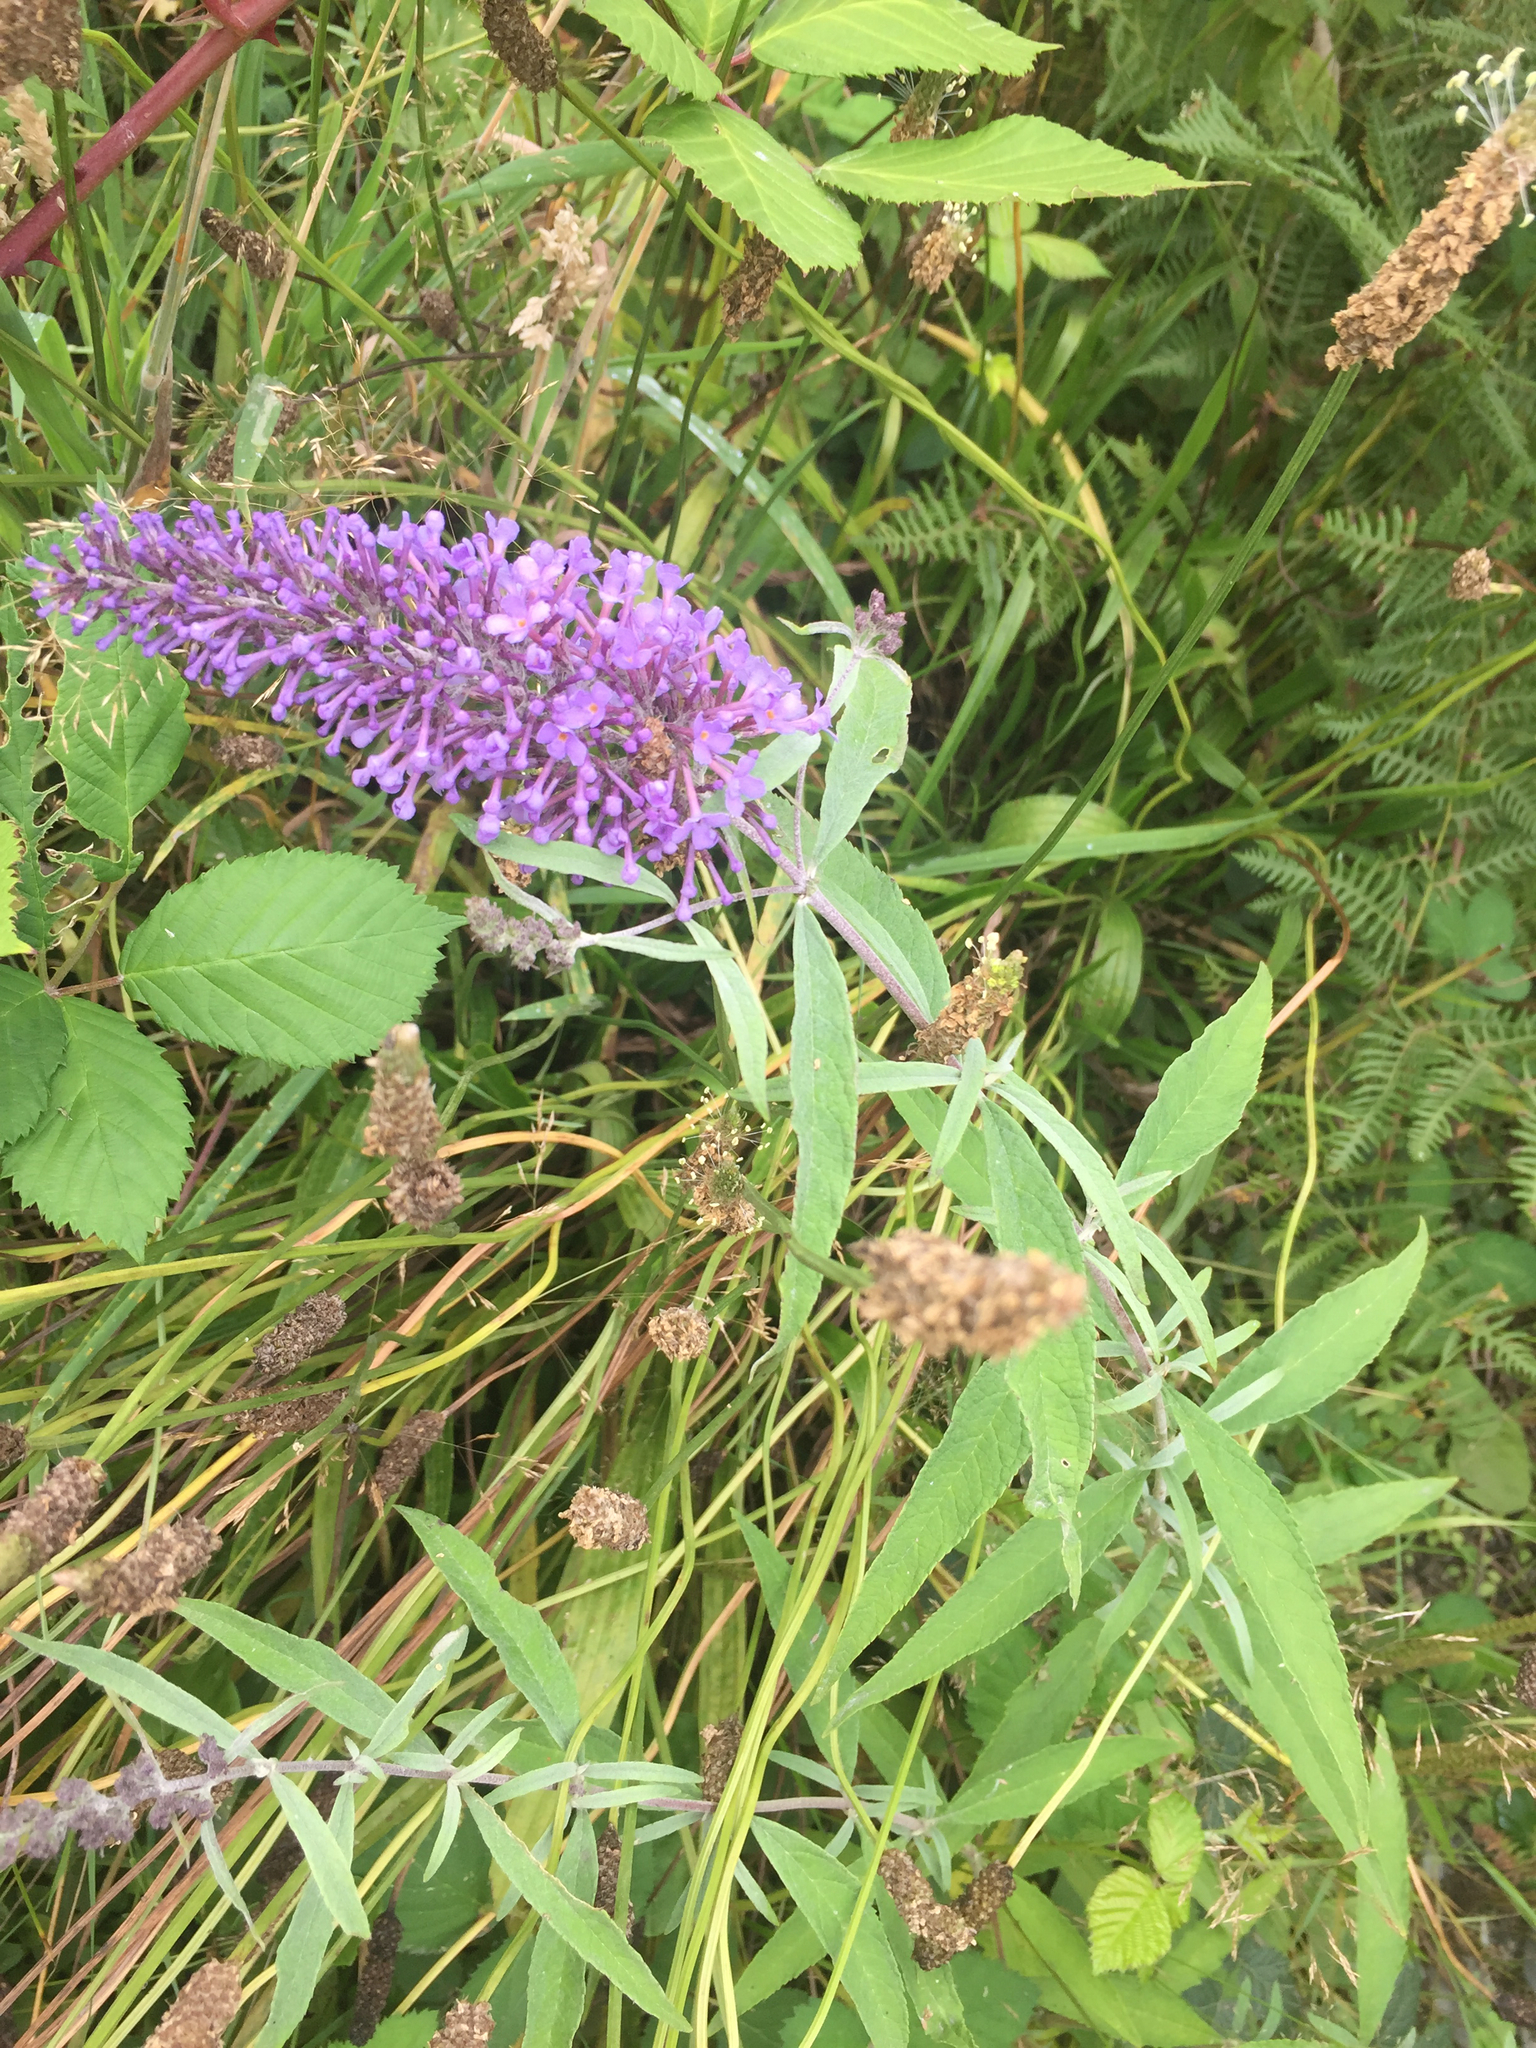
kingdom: Plantae
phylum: Tracheophyta
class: Magnoliopsida
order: Lamiales
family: Scrophulariaceae
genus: Buddleja
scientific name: Buddleja davidii
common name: Butterfly-bush
